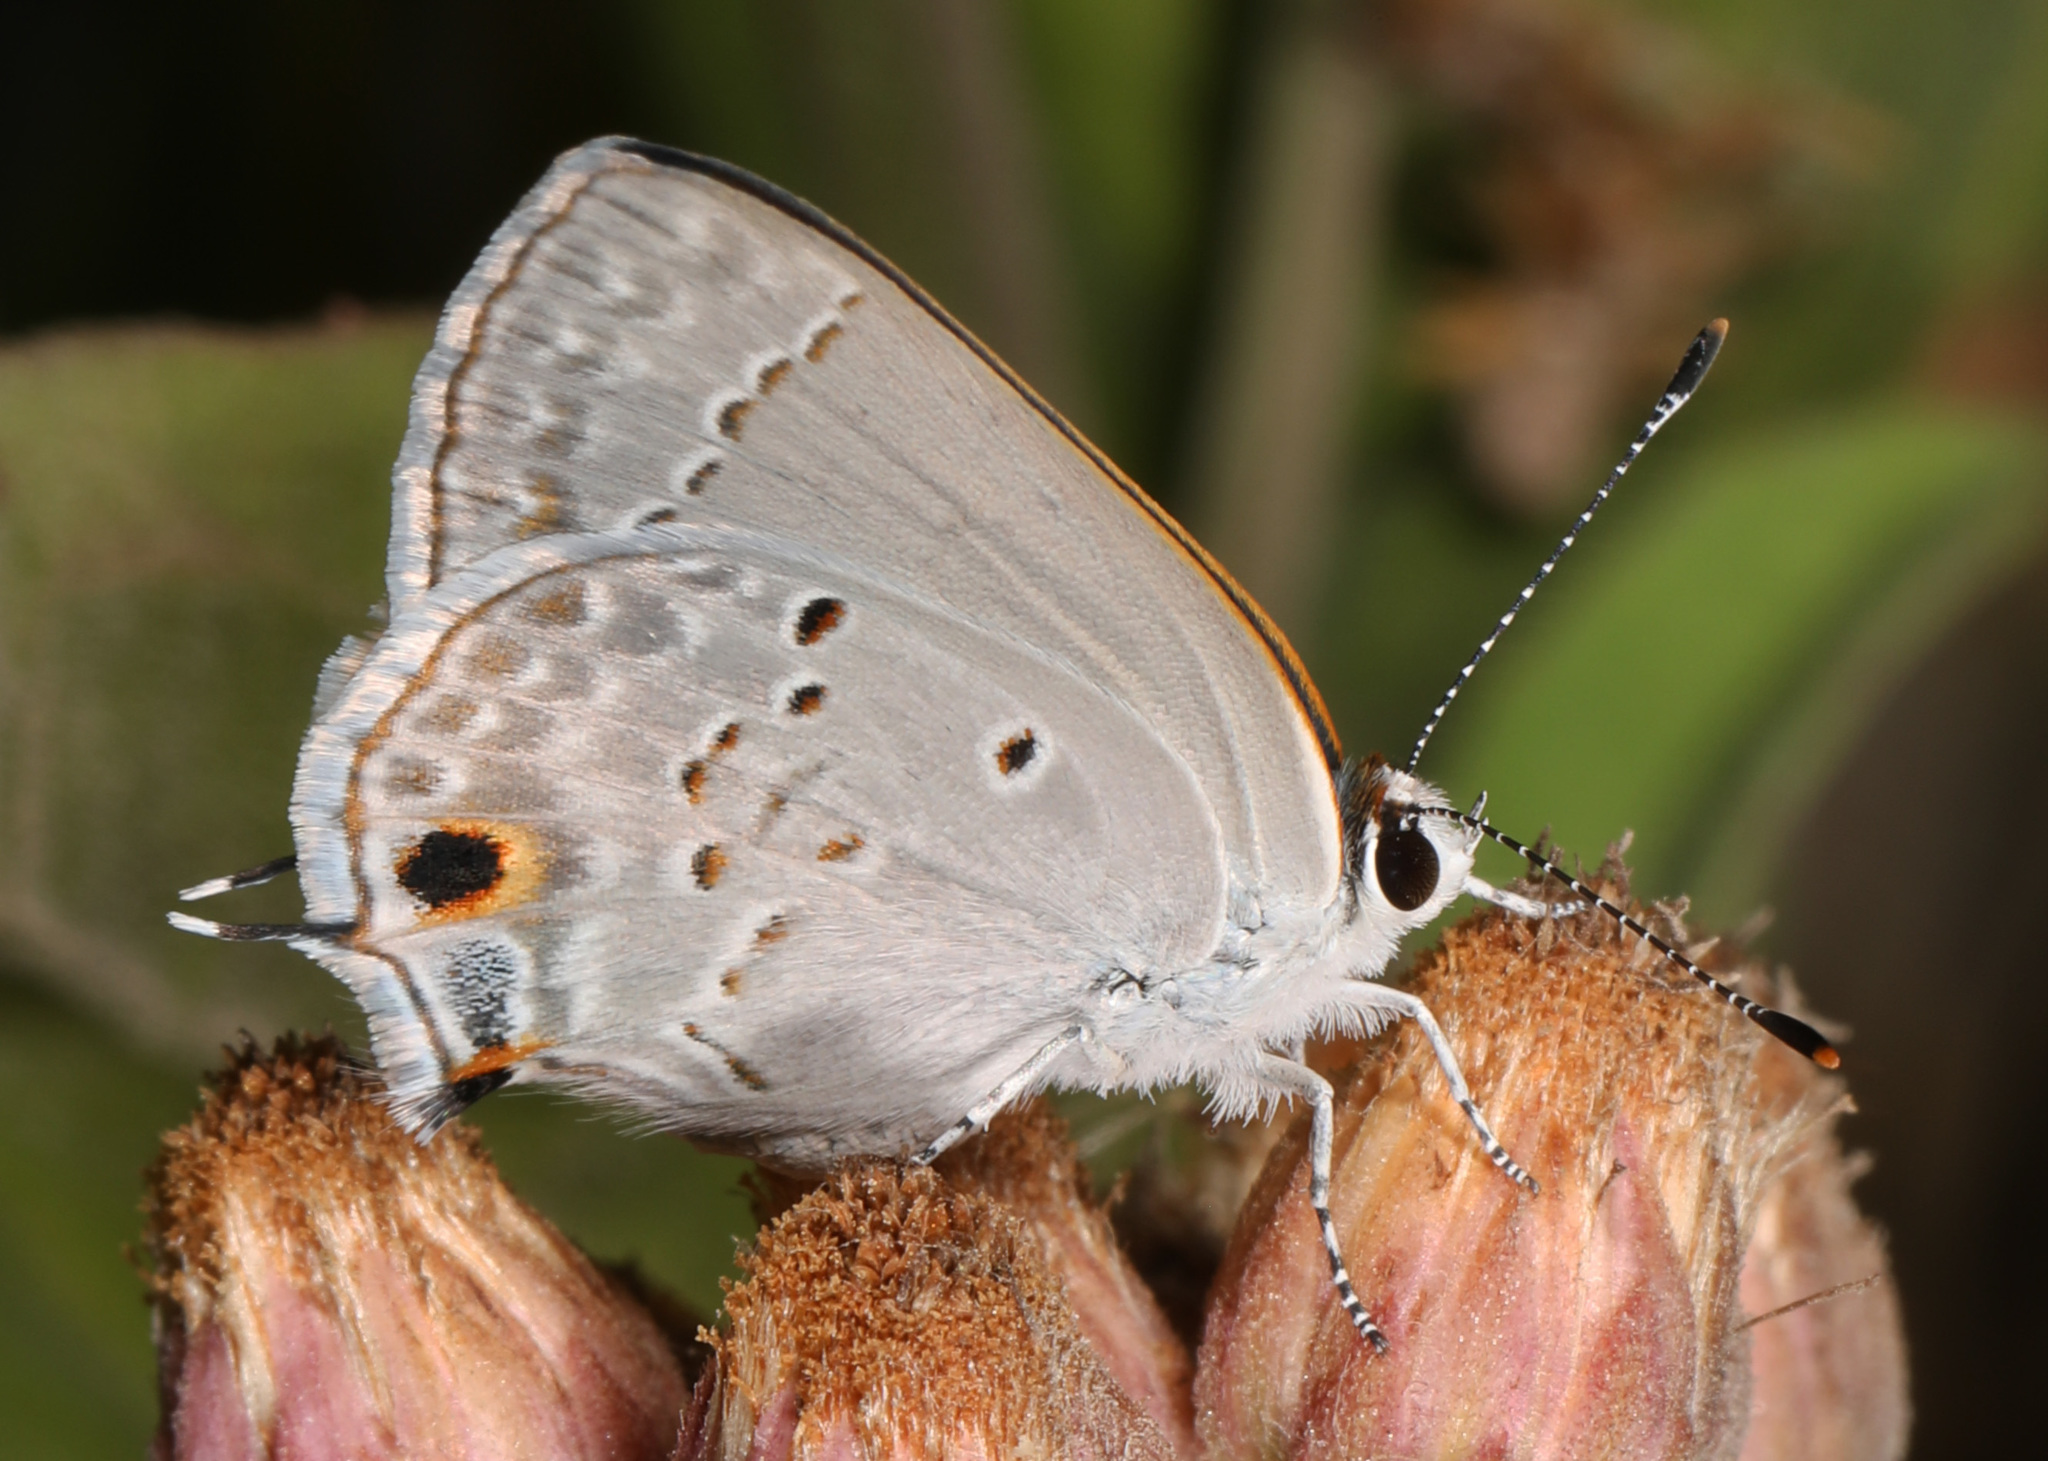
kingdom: Animalia
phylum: Arthropoda
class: Insecta
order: Lepidoptera
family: Lycaenidae
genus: Callicista
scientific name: Callicista columella
